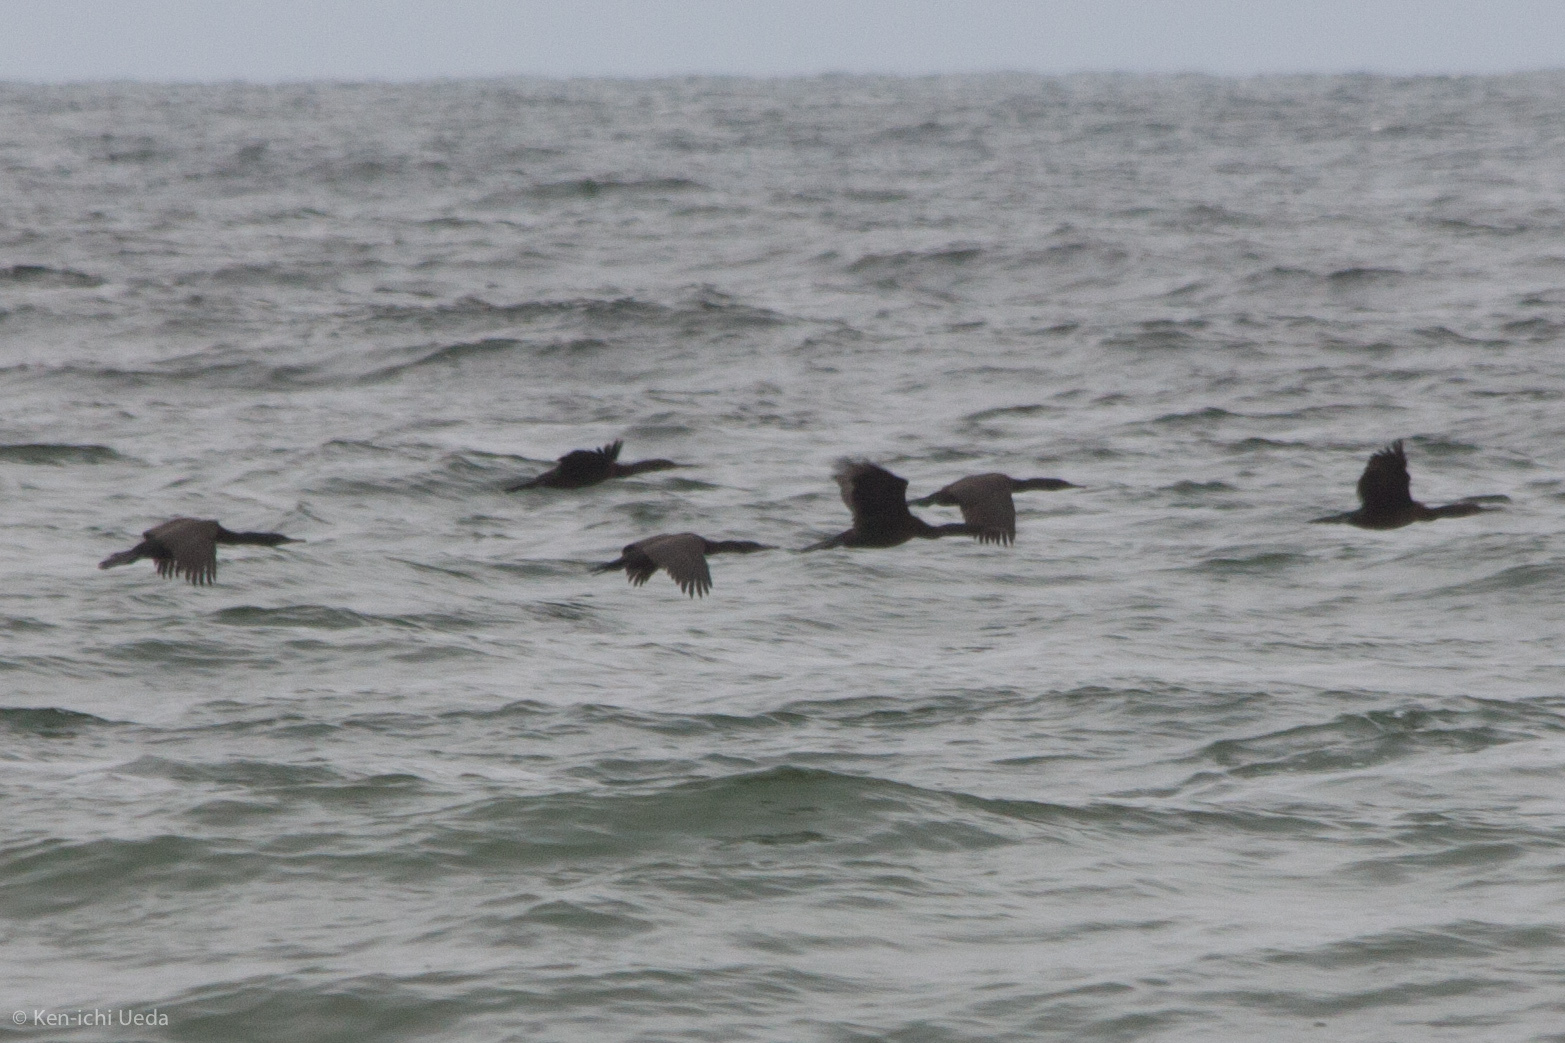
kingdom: Animalia
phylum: Chordata
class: Aves
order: Suliformes
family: Phalacrocoracidae
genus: Urile
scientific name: Urile penicillatus
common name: Brandt's cormorant
